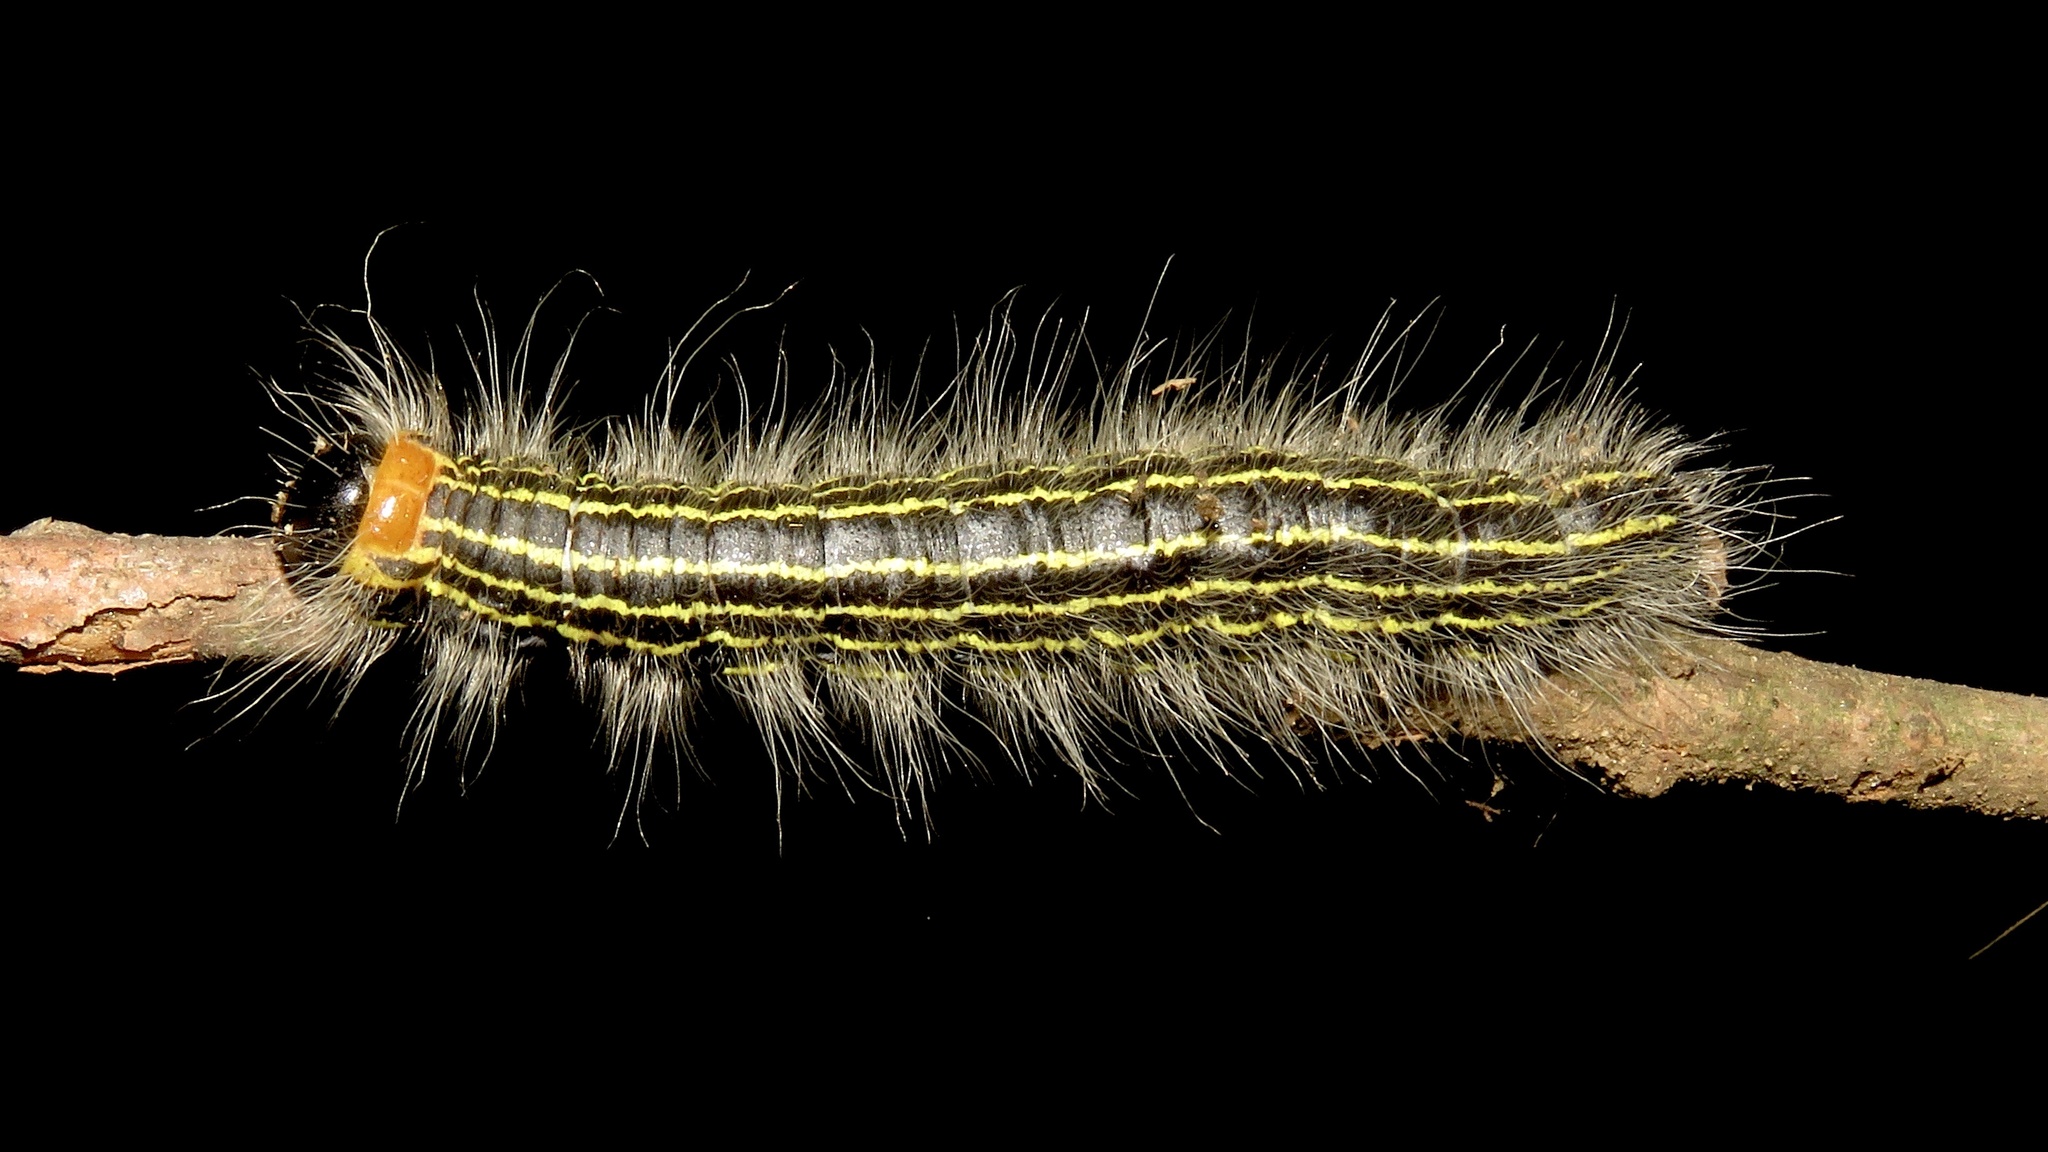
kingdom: Animalia
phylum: Arthropoda
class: Insecta
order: Lepidoptera
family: Notodontidae
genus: Datana
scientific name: Datana ministra
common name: Yellow-necked caterpillar moth
